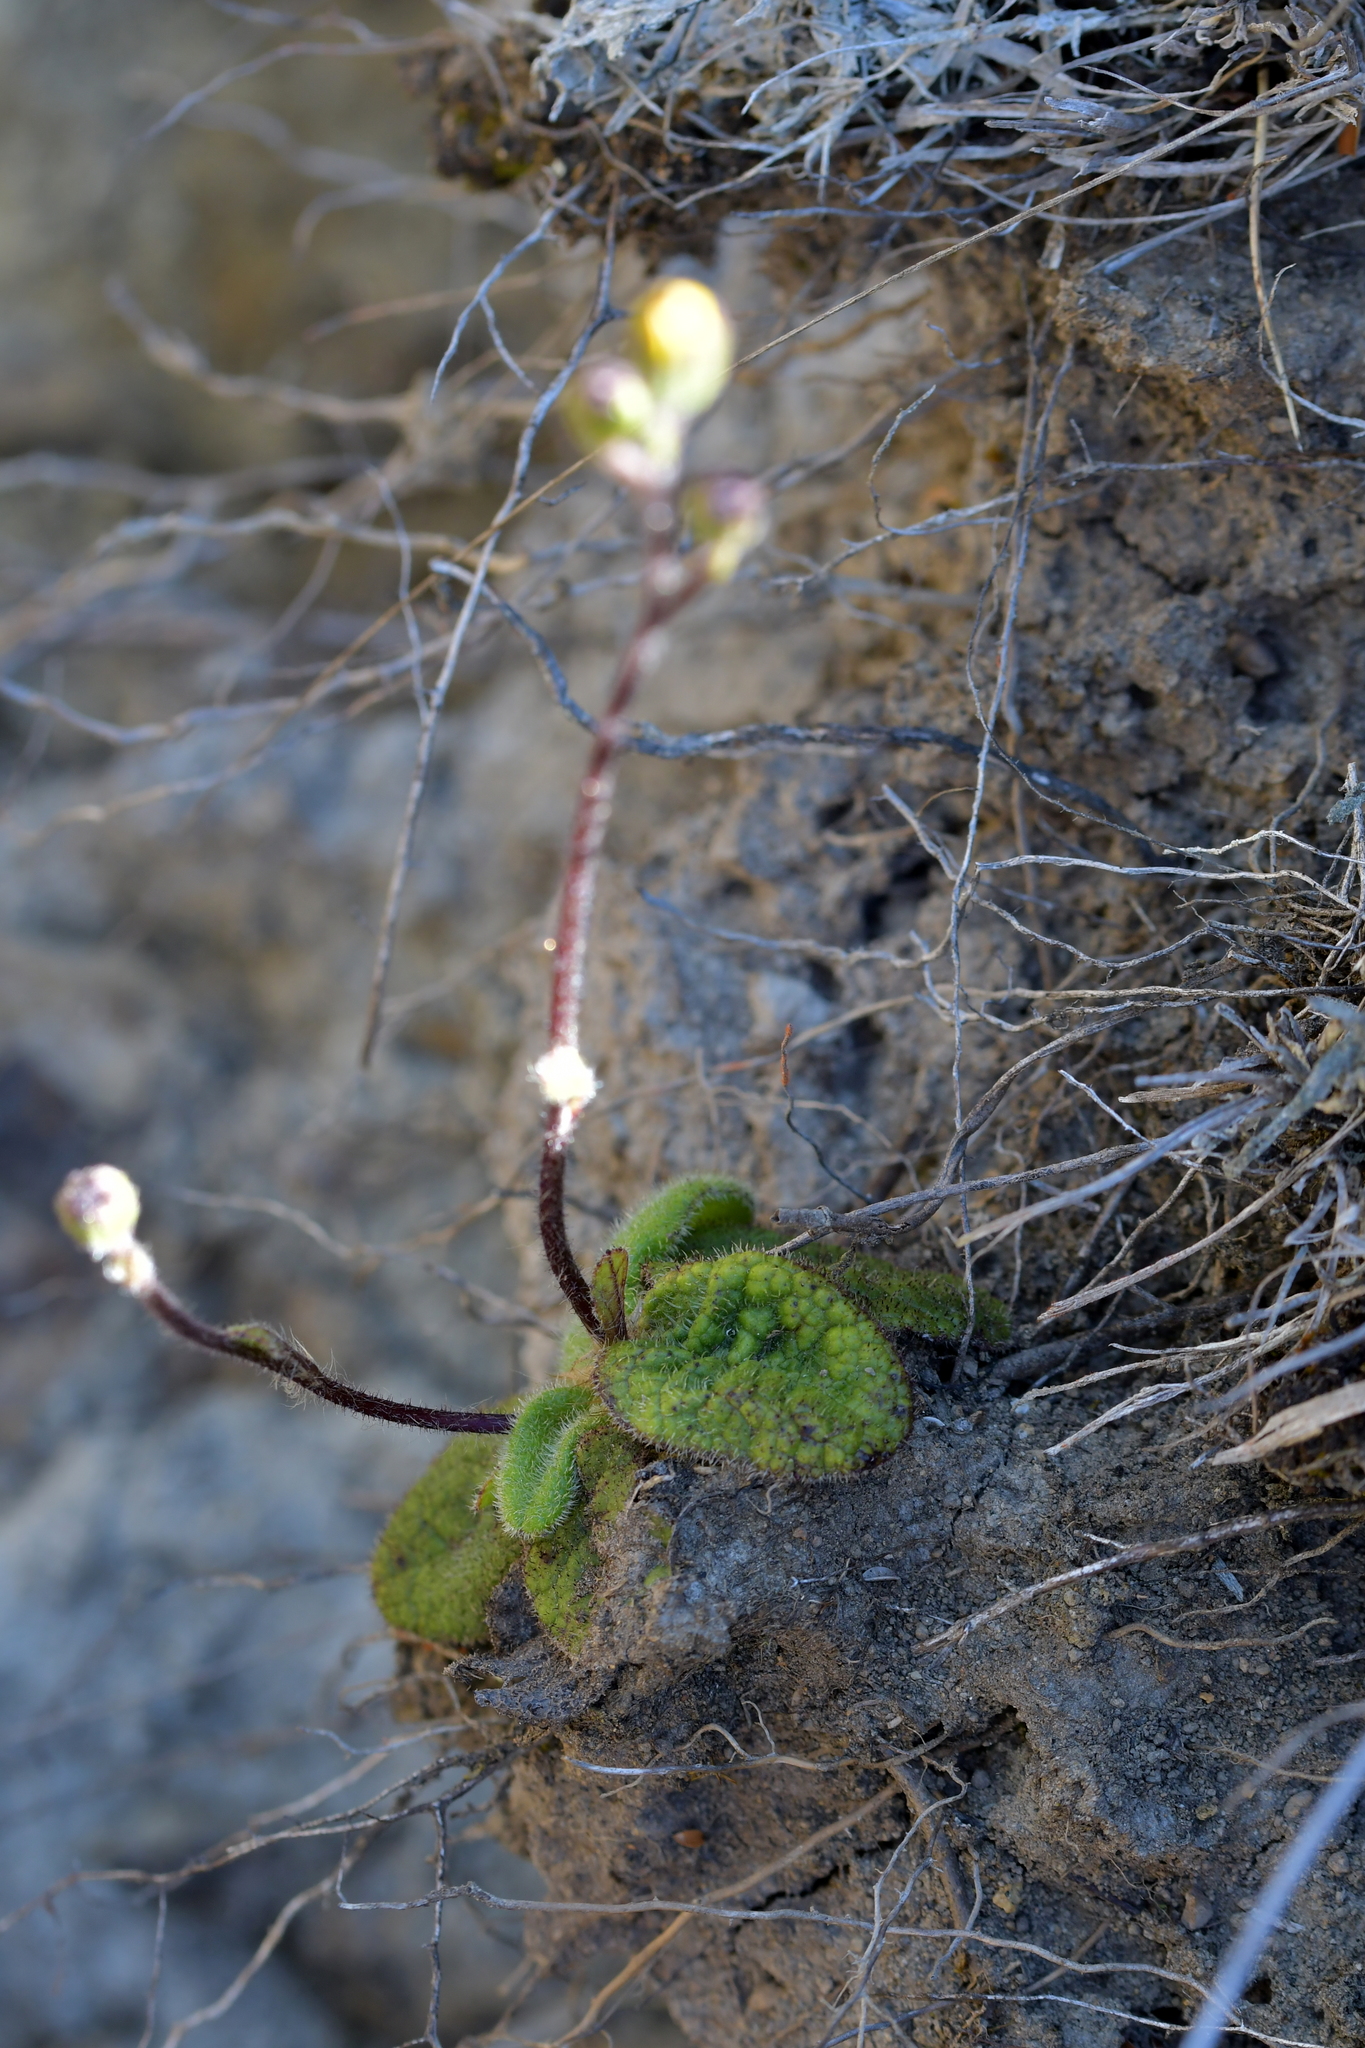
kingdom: Plantae
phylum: Tracheophyta
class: Magnoliopsida
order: Asterales
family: Asteraceae
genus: Brachyglottis
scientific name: Brachyglottis bellidioides
